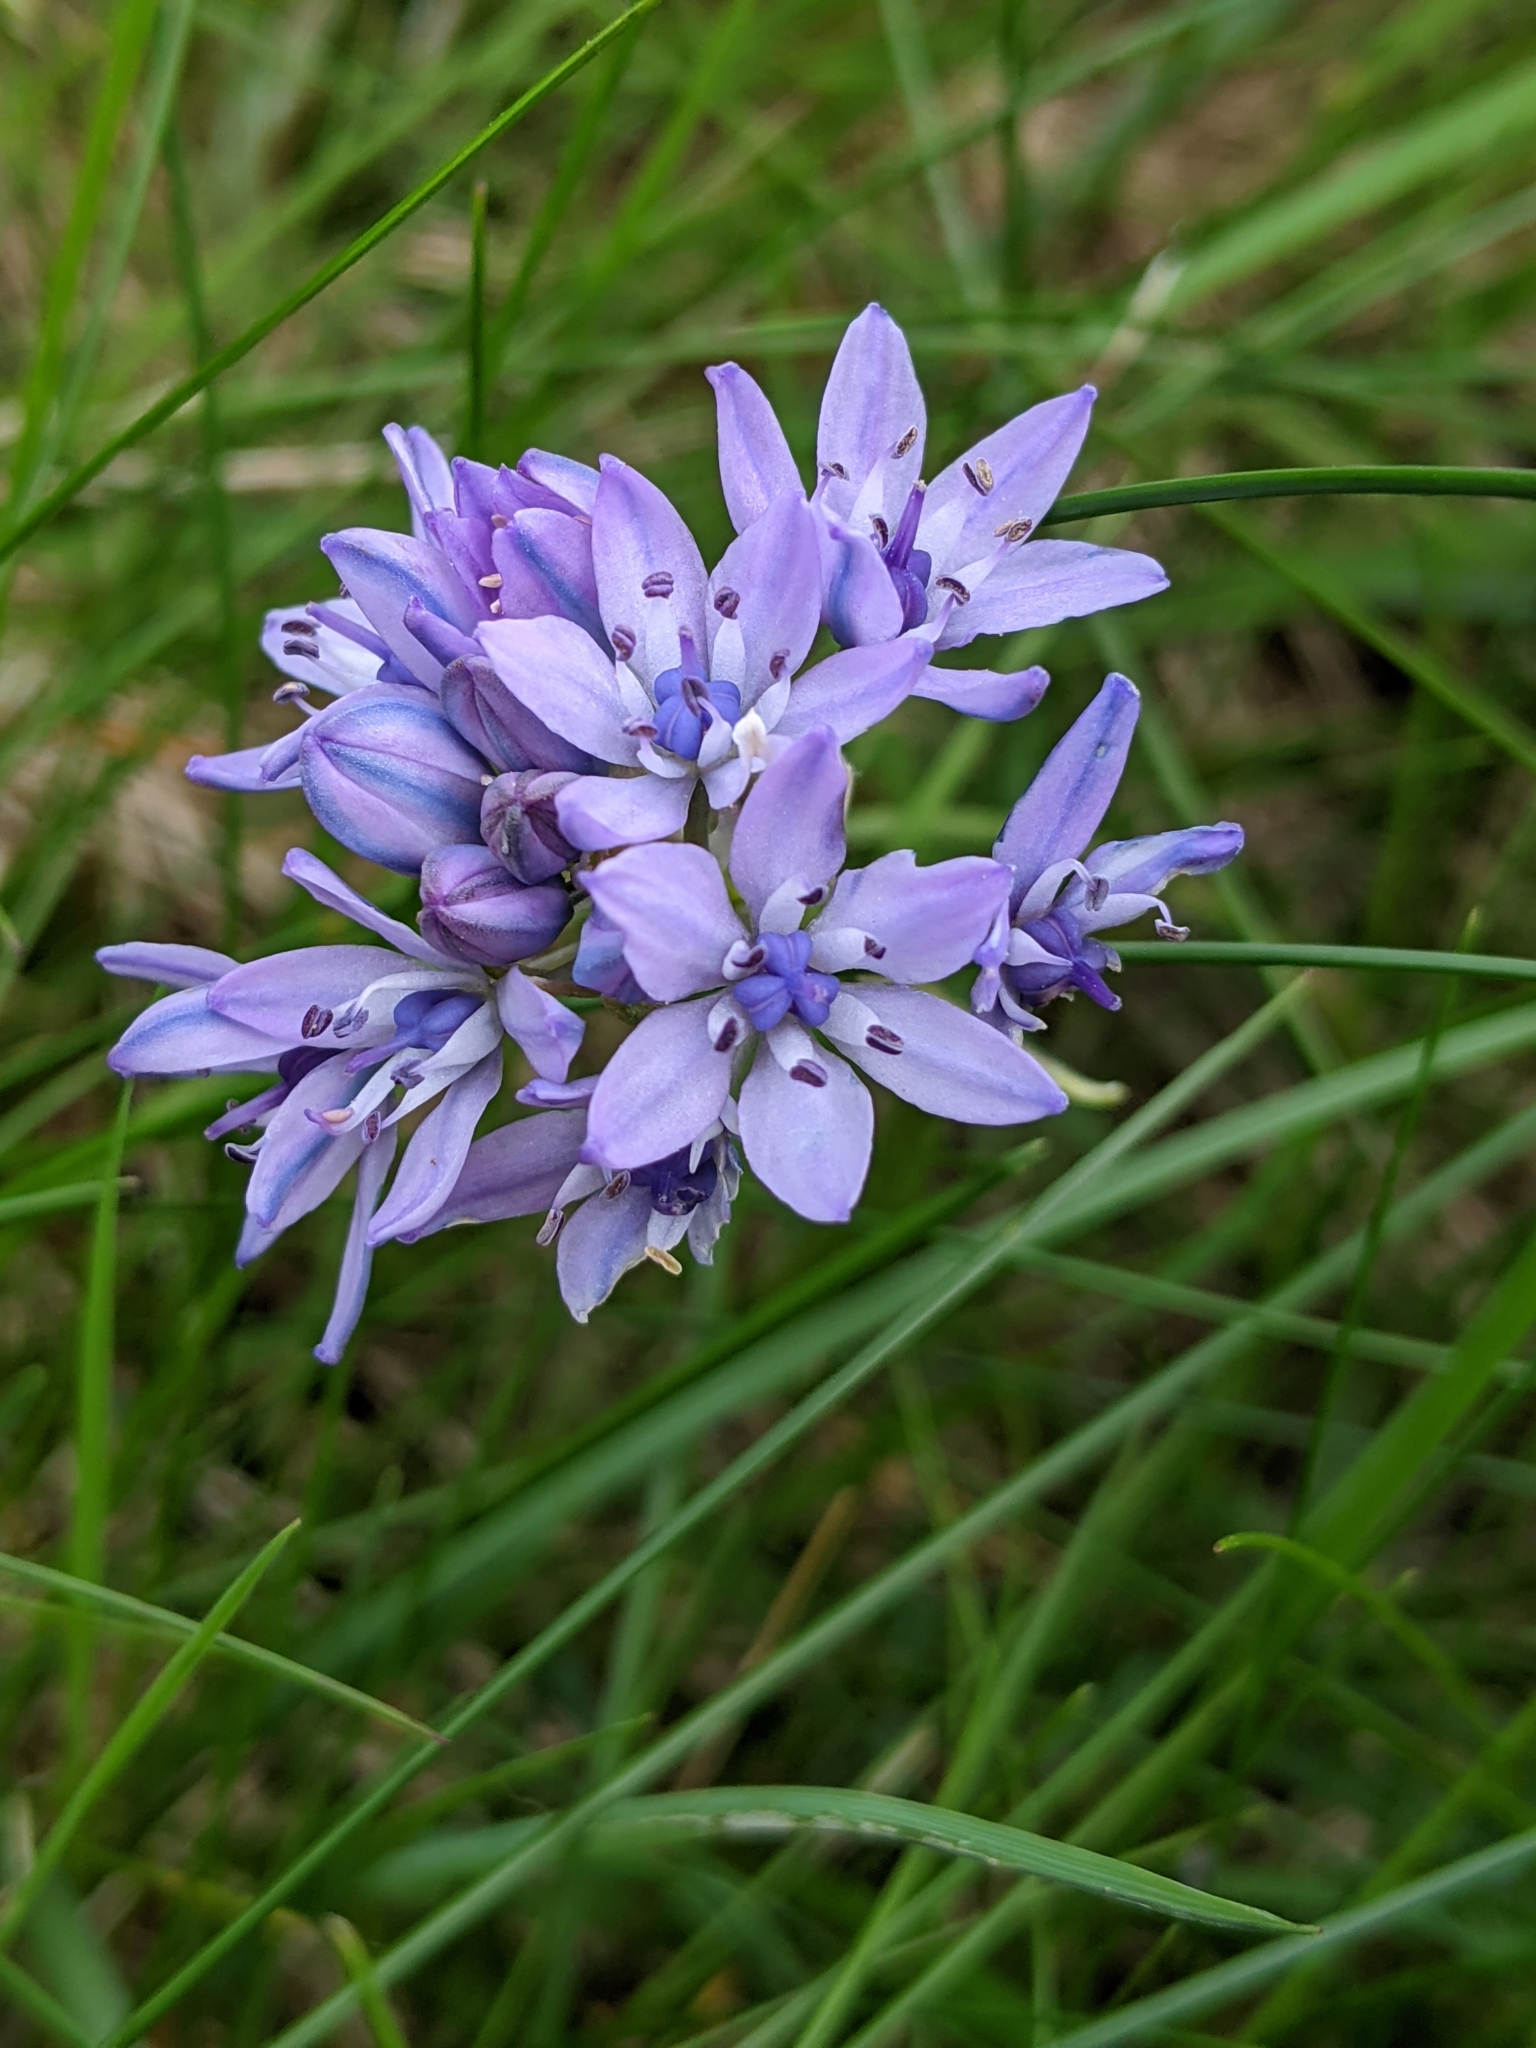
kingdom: Plantae
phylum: Tracheophyta
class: Liliopsida
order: Asparagales
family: Asparagaceae
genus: Scilla
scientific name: Scilla verna
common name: Spring squill
